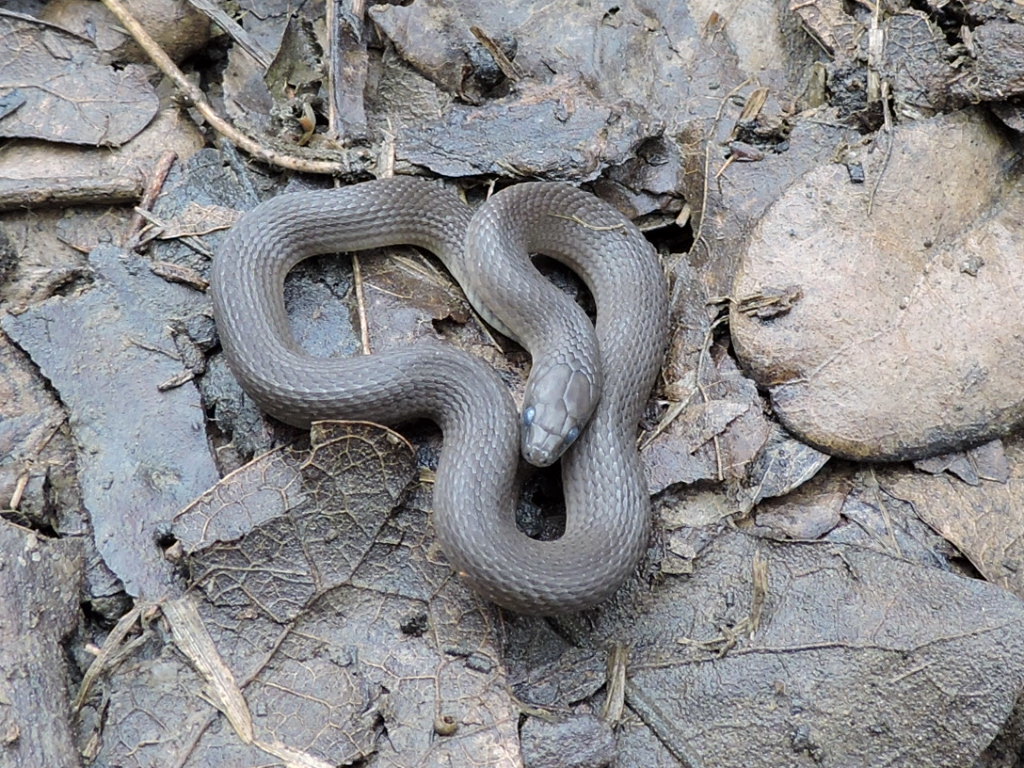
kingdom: Animalia
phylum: Chordata
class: Squamata
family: Colubridae
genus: Haldea
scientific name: Haldea striatula
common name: Rough earth snake
